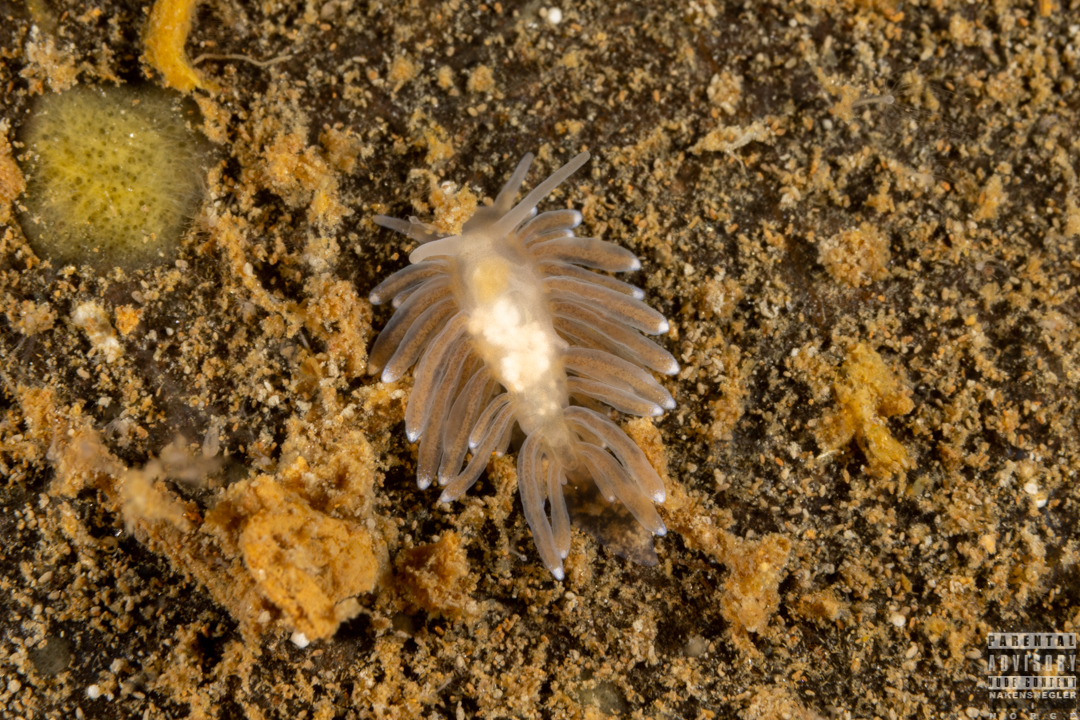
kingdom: Animalia
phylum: Mollusca
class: Gastropoda
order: Nudibranchia
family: Cuthonidae
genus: Bohuslania
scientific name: Bohuslania matsmichaeli
